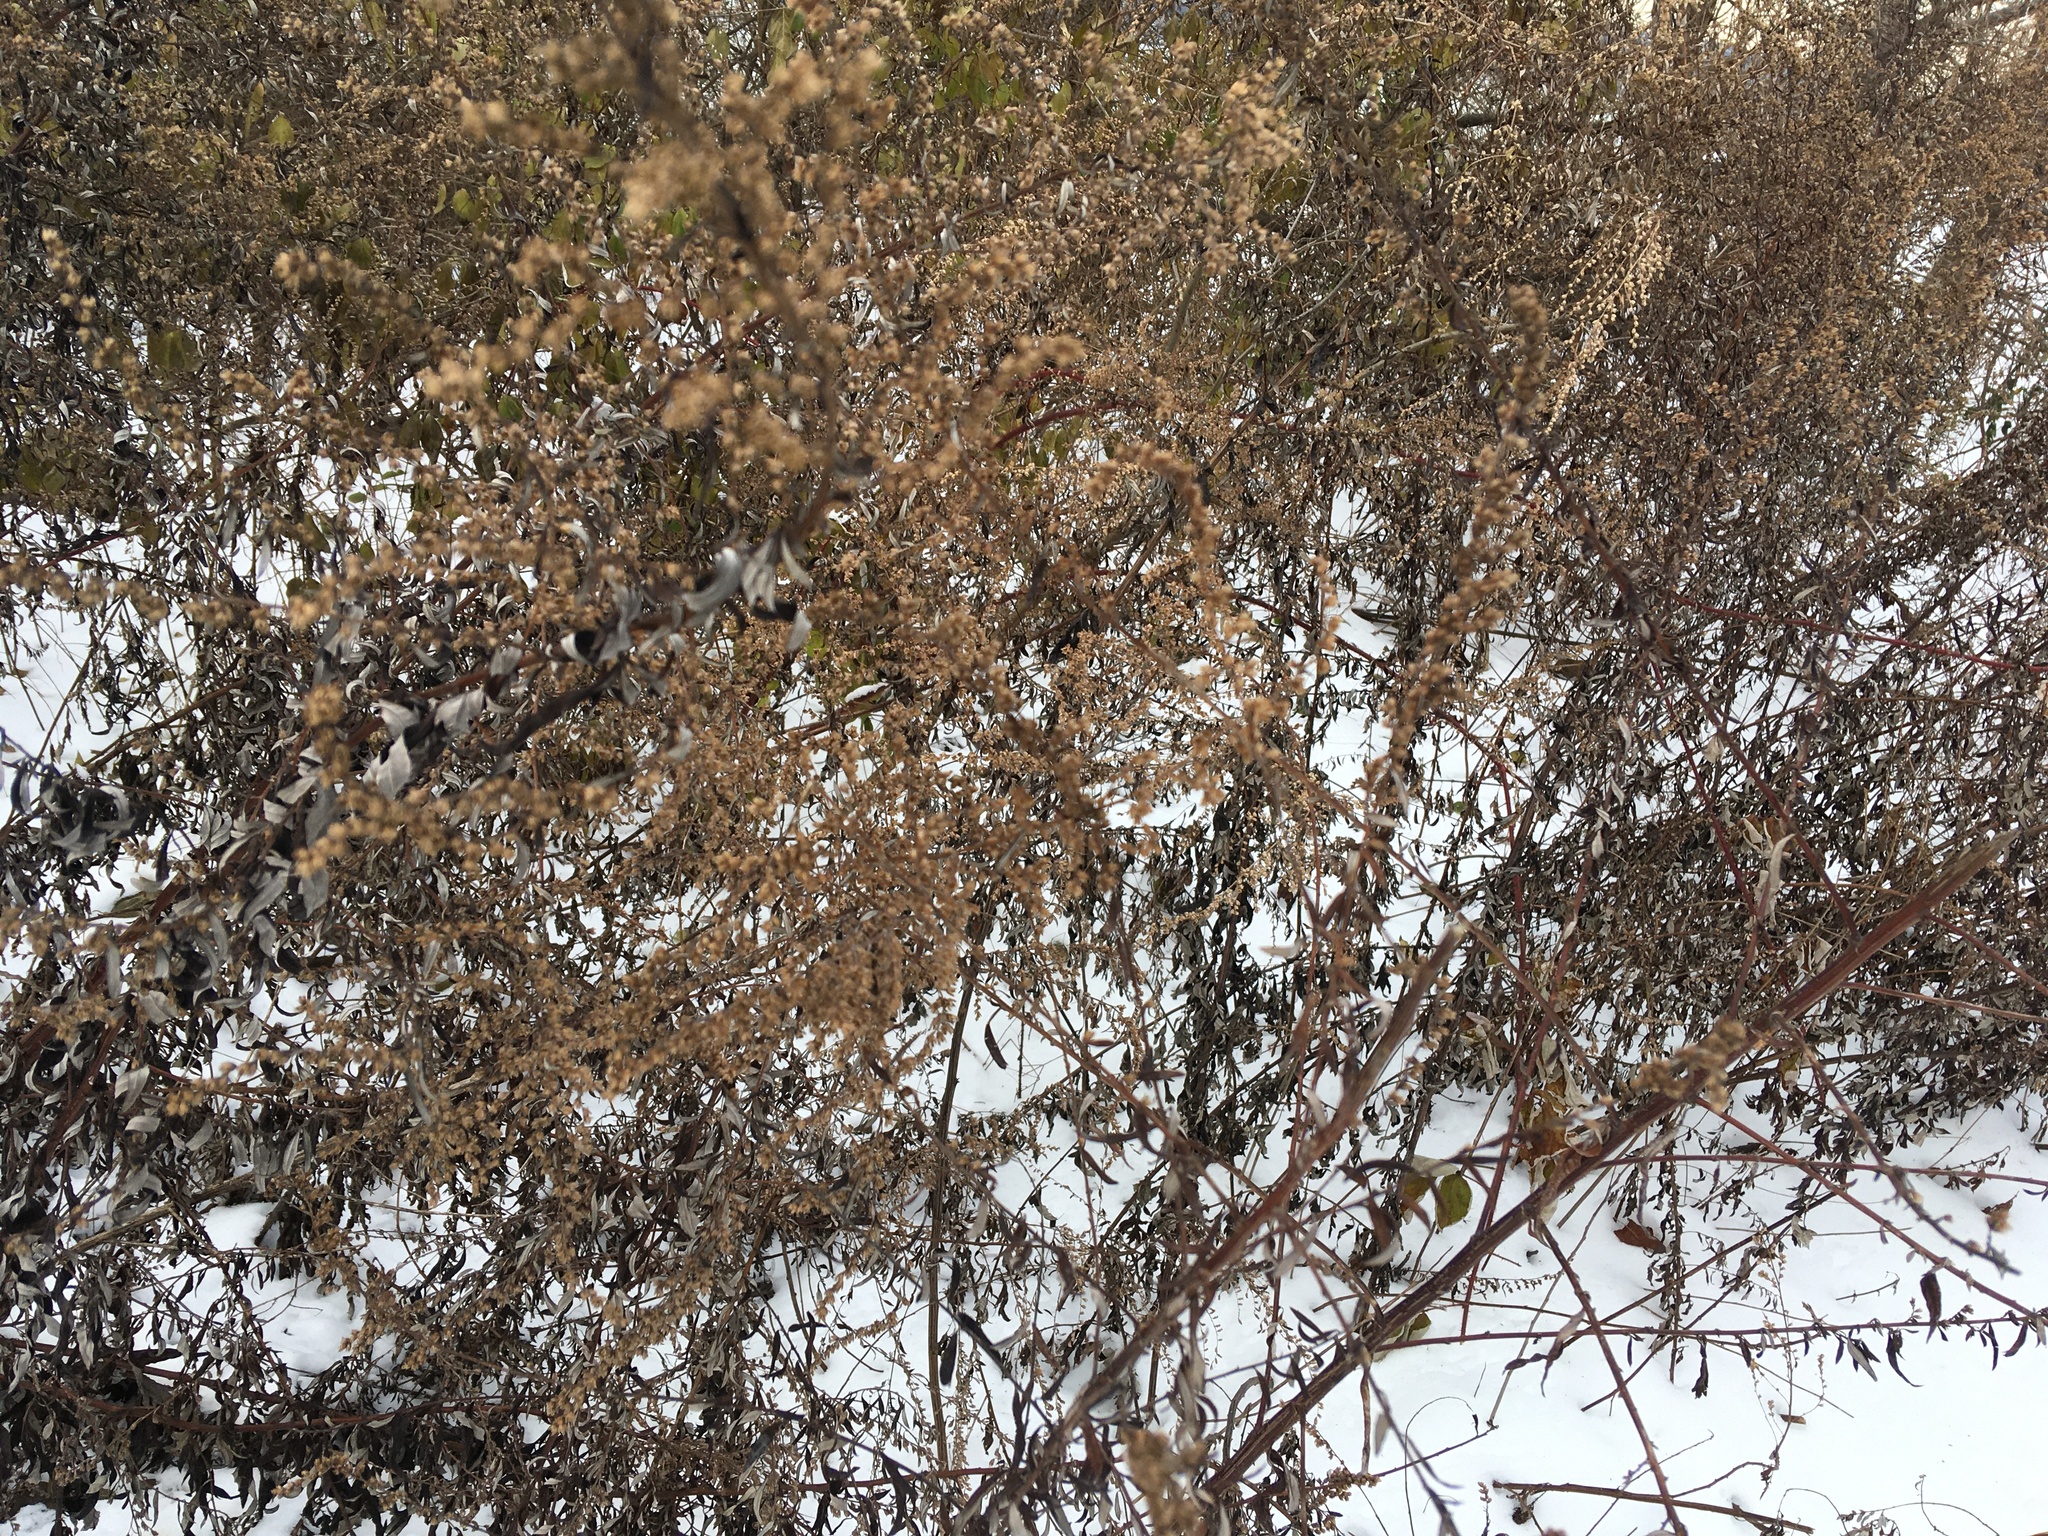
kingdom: Plantae
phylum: Tracheophyta
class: Magnoliopsida
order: Asterales
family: Asteraceae
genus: Artemisia
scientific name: Artemisia vulgaris
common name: Mugwort
